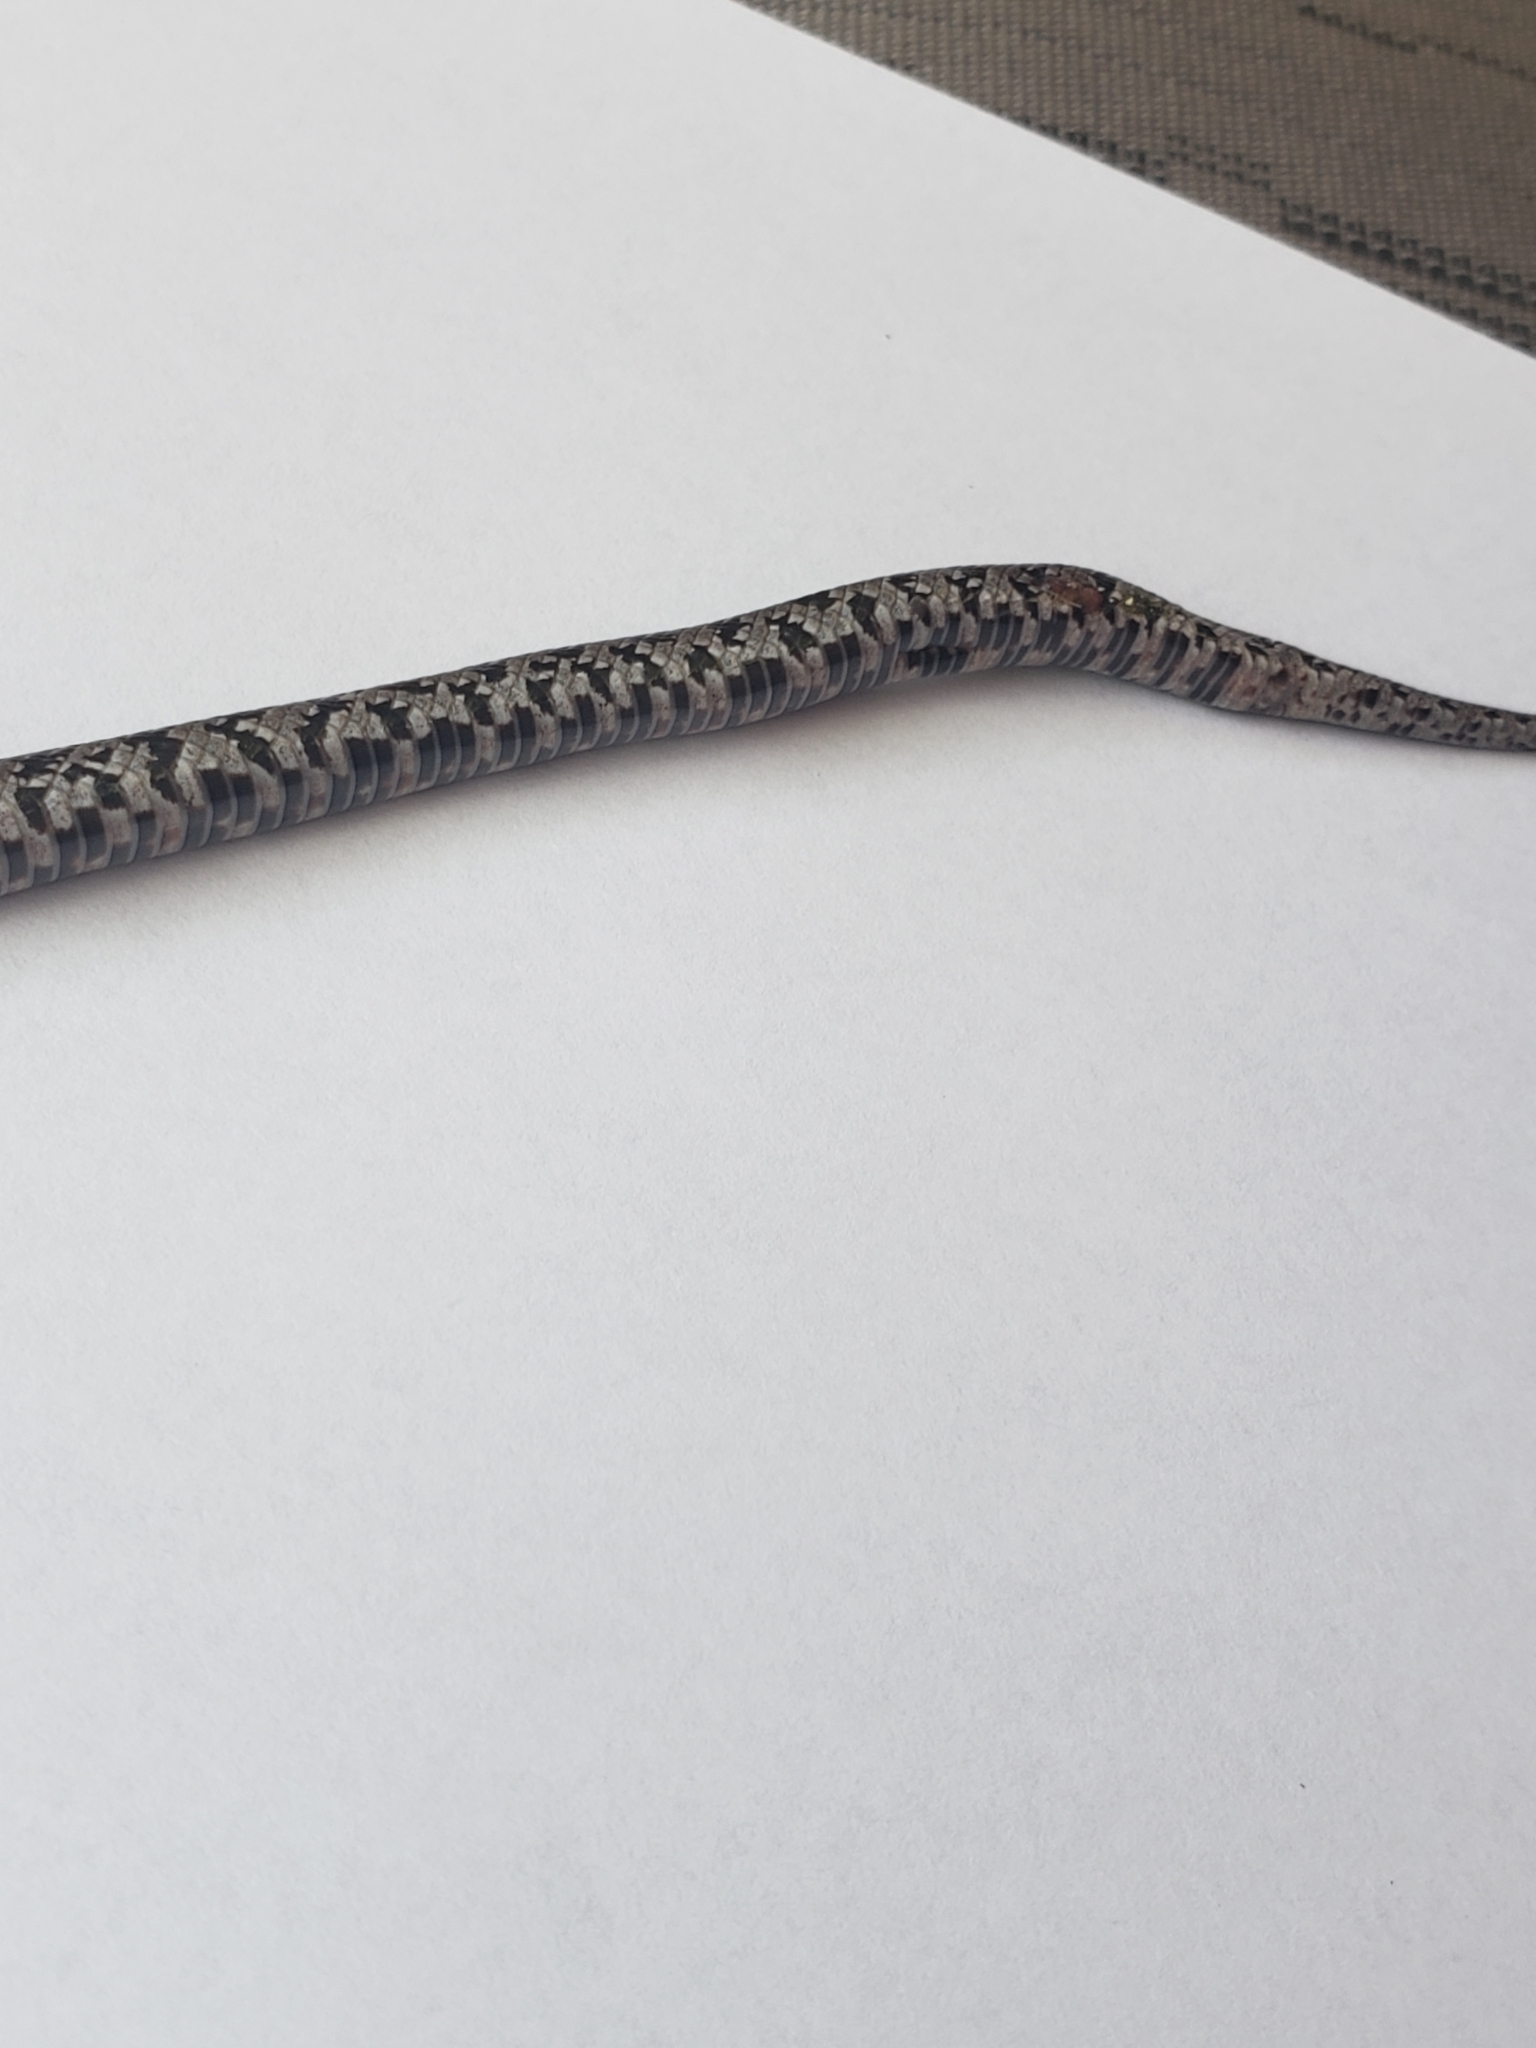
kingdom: Animalia
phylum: Chordata
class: Squamata
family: Colubridae
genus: Lampropeltis
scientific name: Lampropeltis calligaster
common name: Prairie kingsnake
